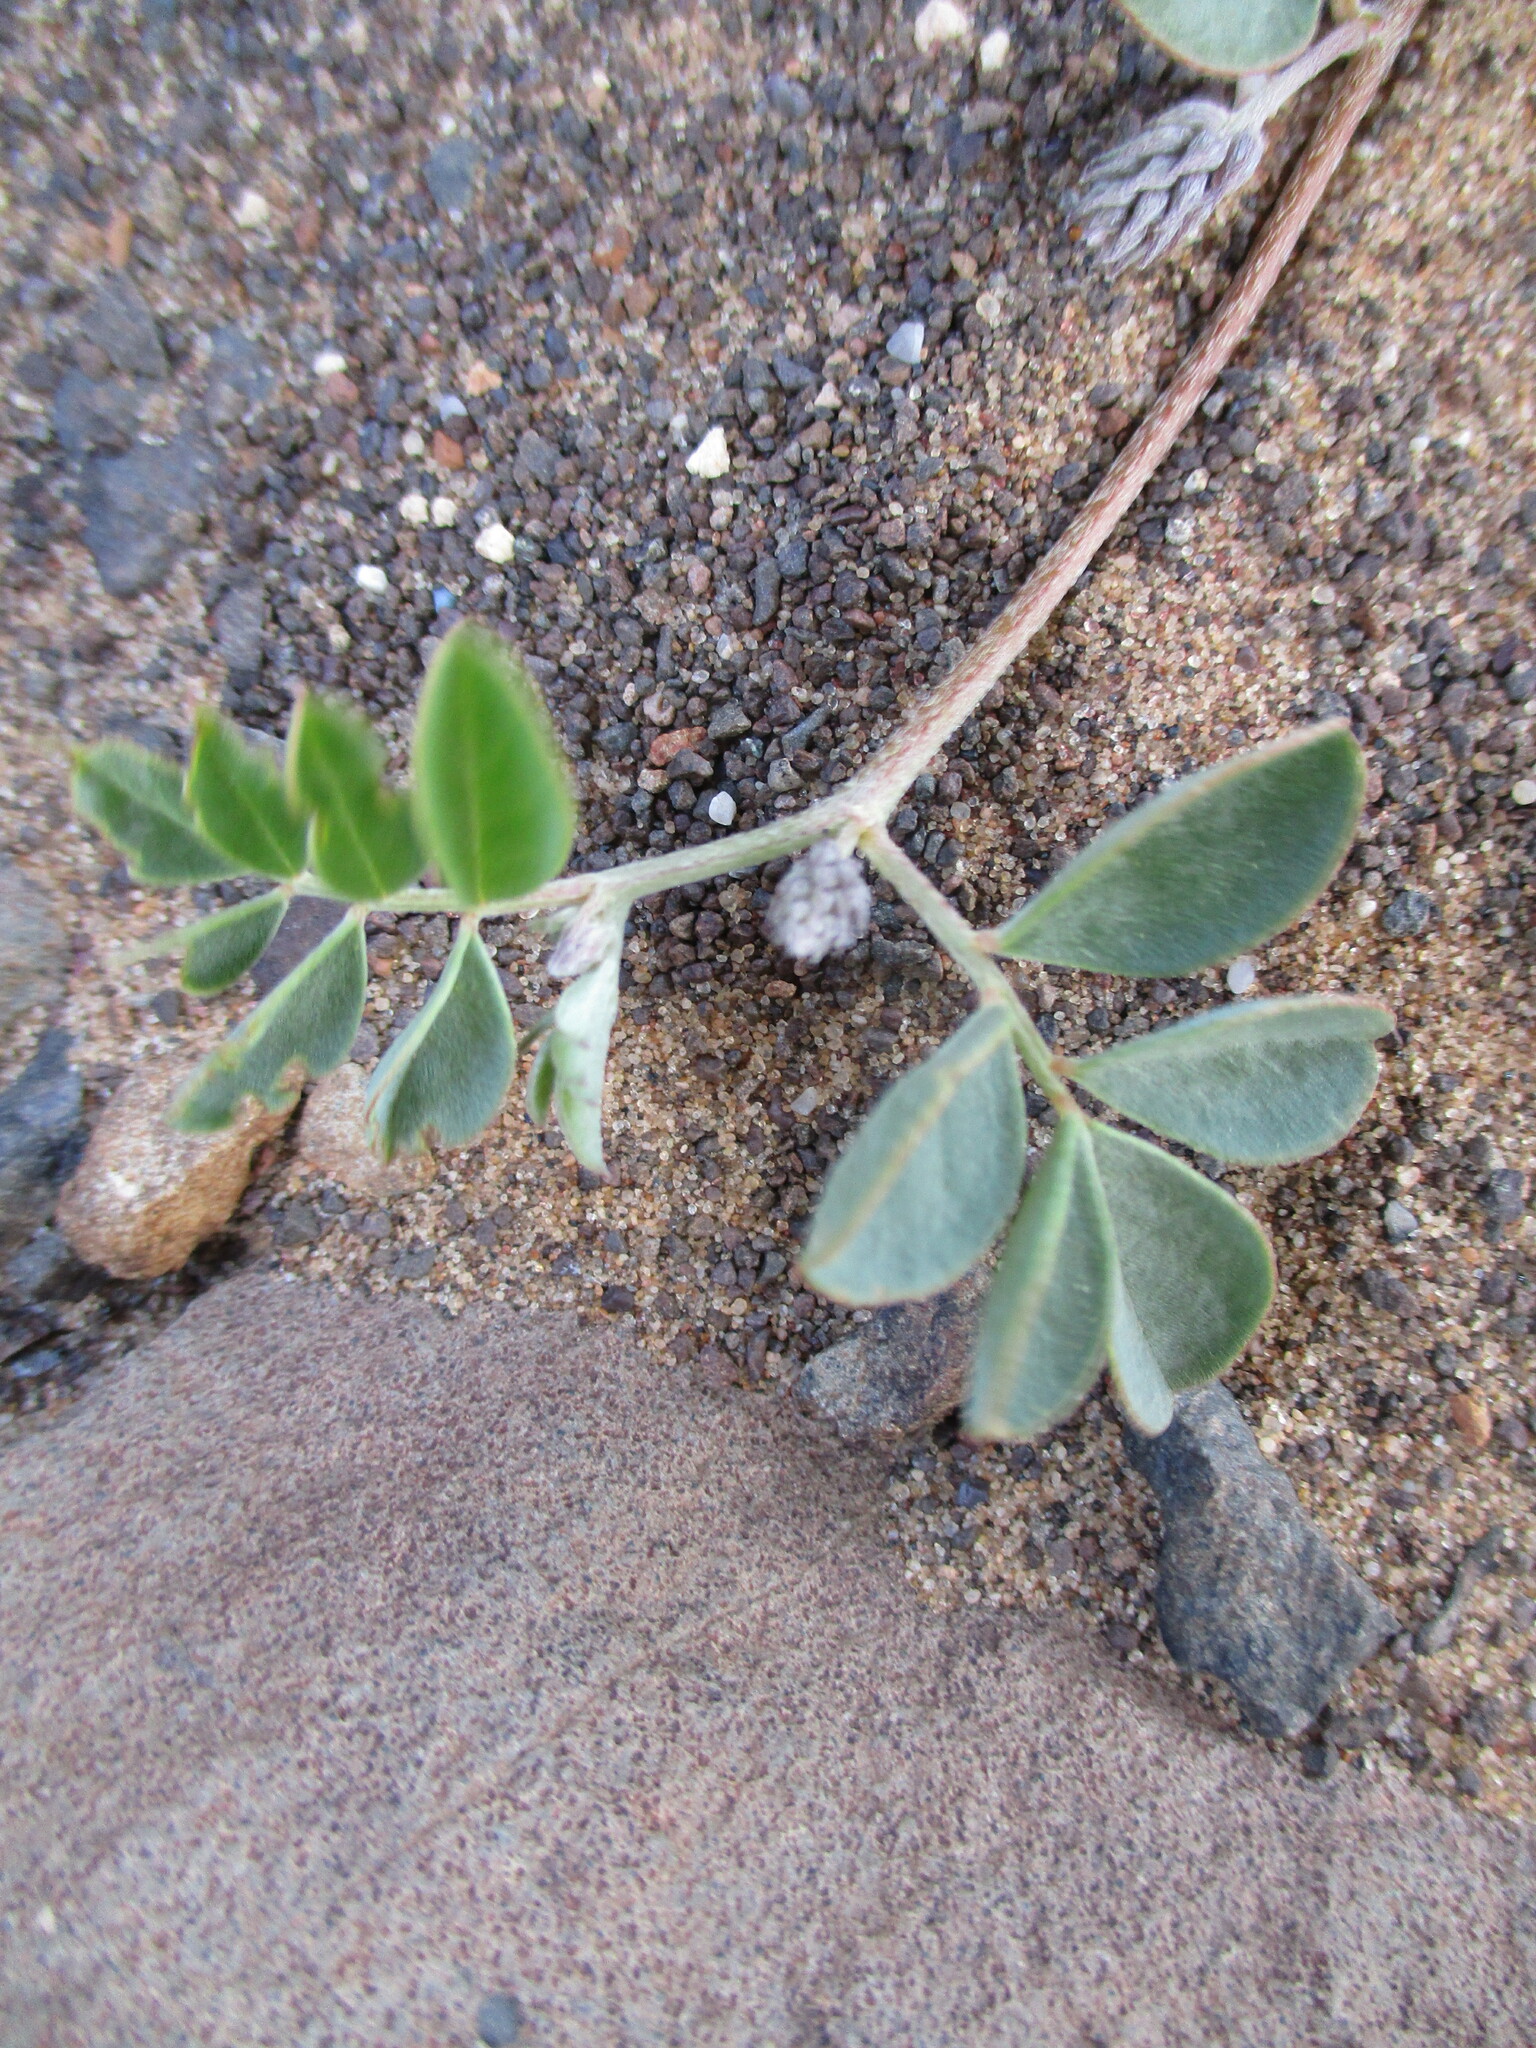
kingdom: Plantae
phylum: Tracheophyta
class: Magnoliopsida
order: Fabales
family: Fabaceae
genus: Indigofera
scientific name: Indigofera teixeirae
